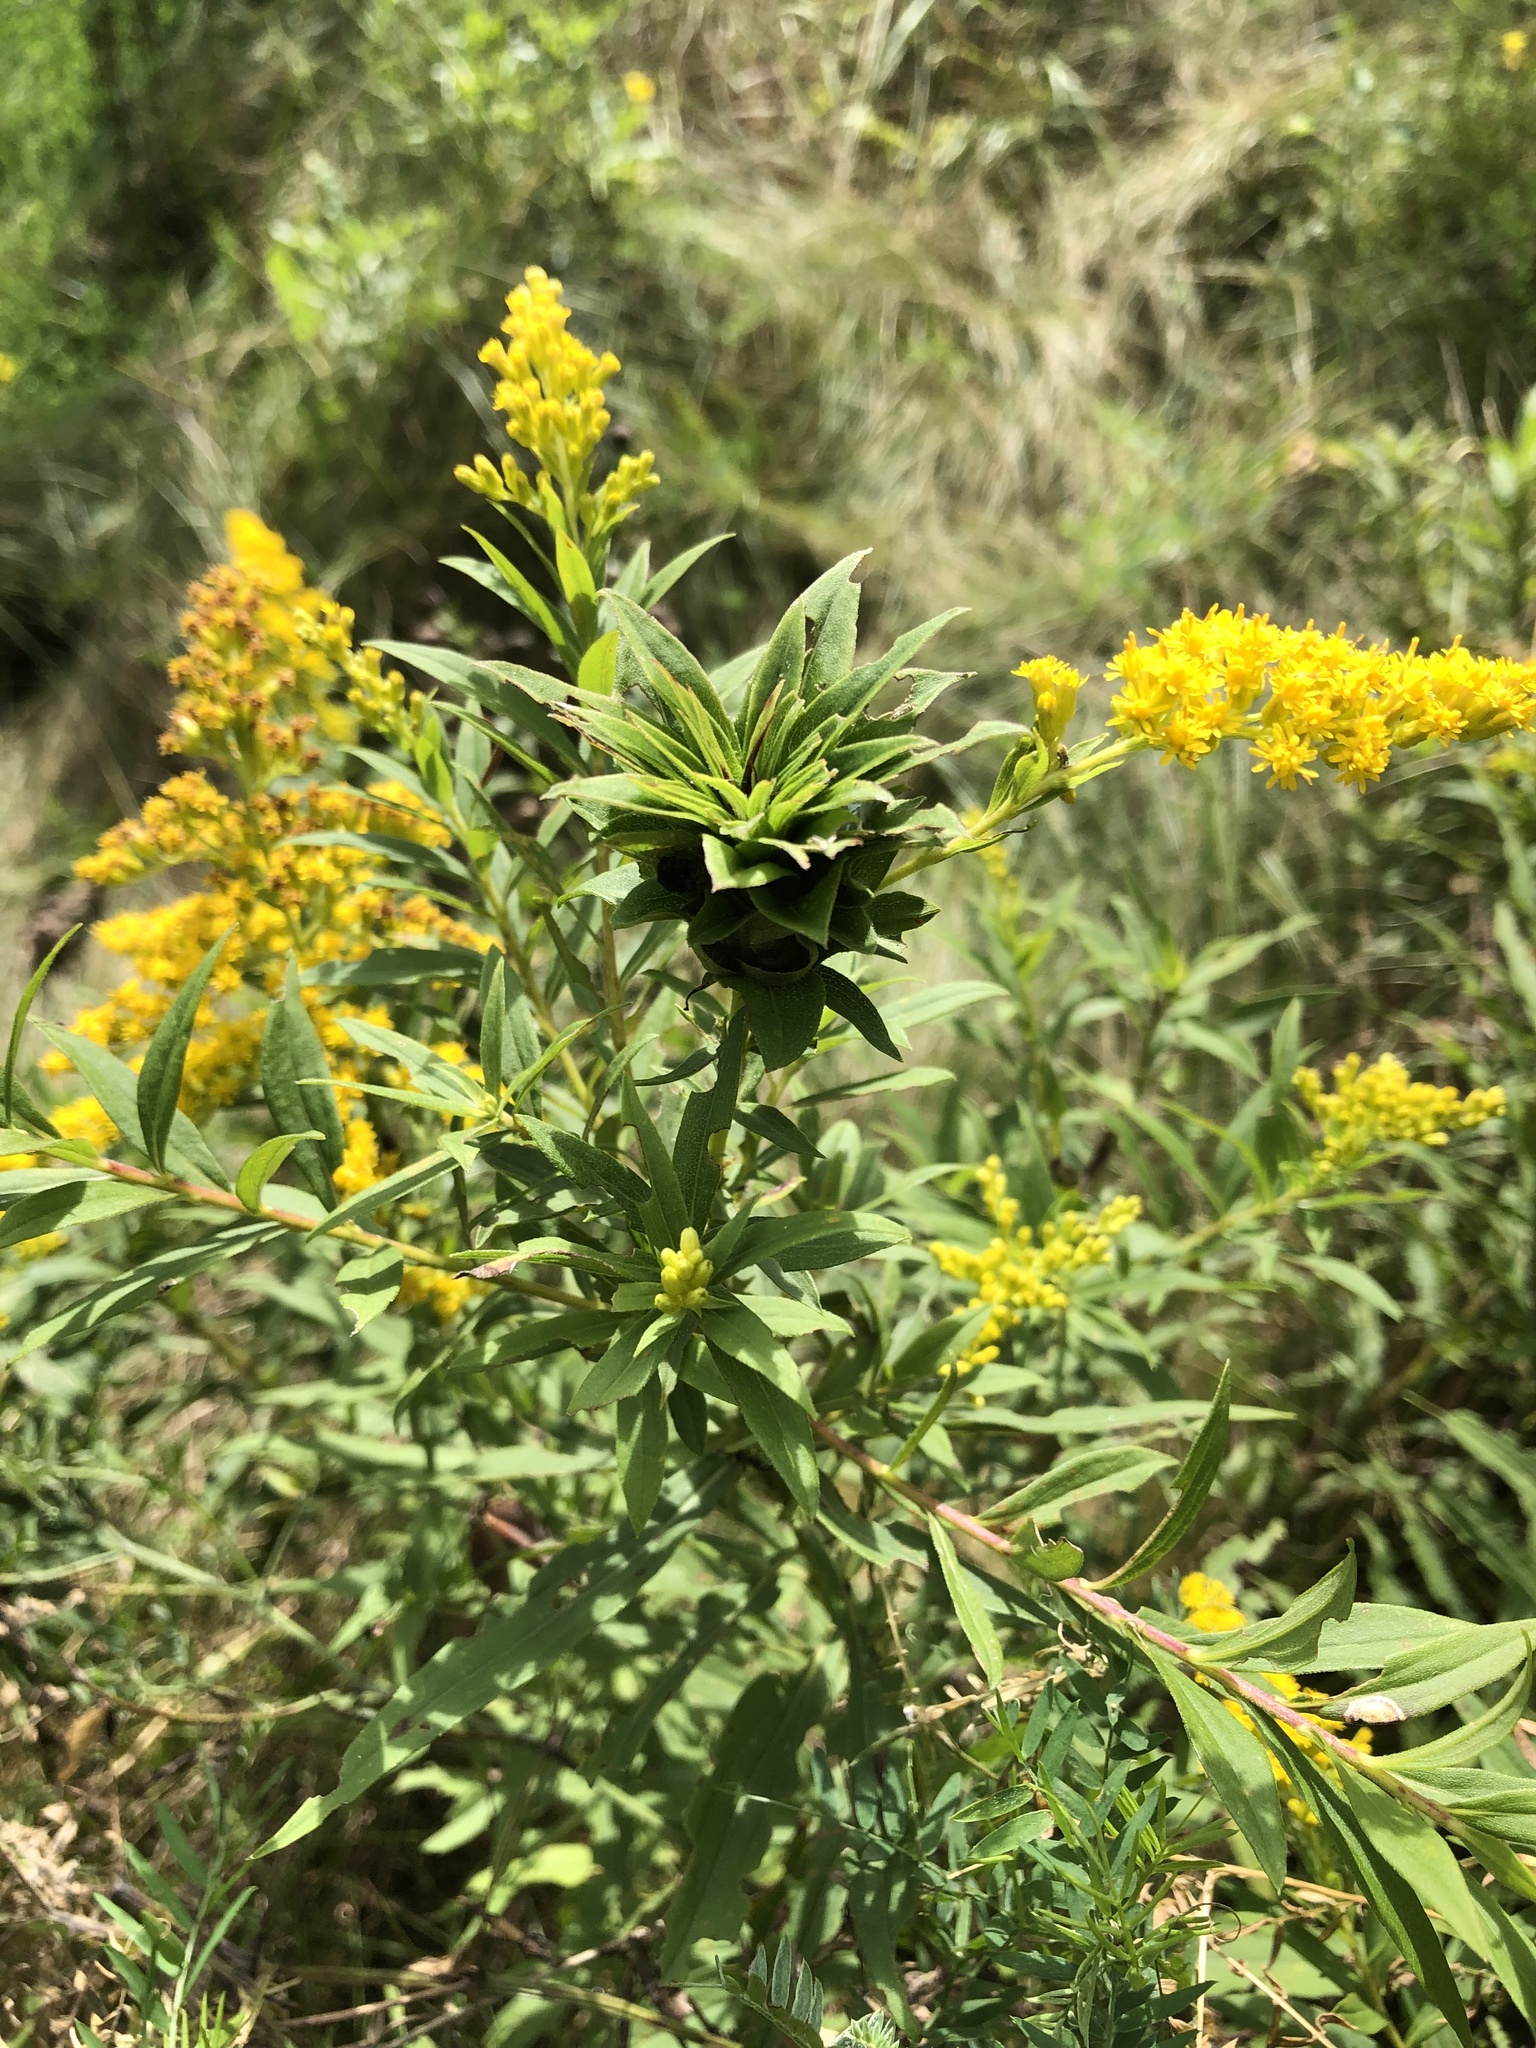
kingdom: Animalia
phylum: Arthropoda
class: Insecta
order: Diptera
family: Cecidomyiidae
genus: Rhopalomyia
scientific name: Rhopalomyia solidaginis
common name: Goldenrod bunch gall midge
